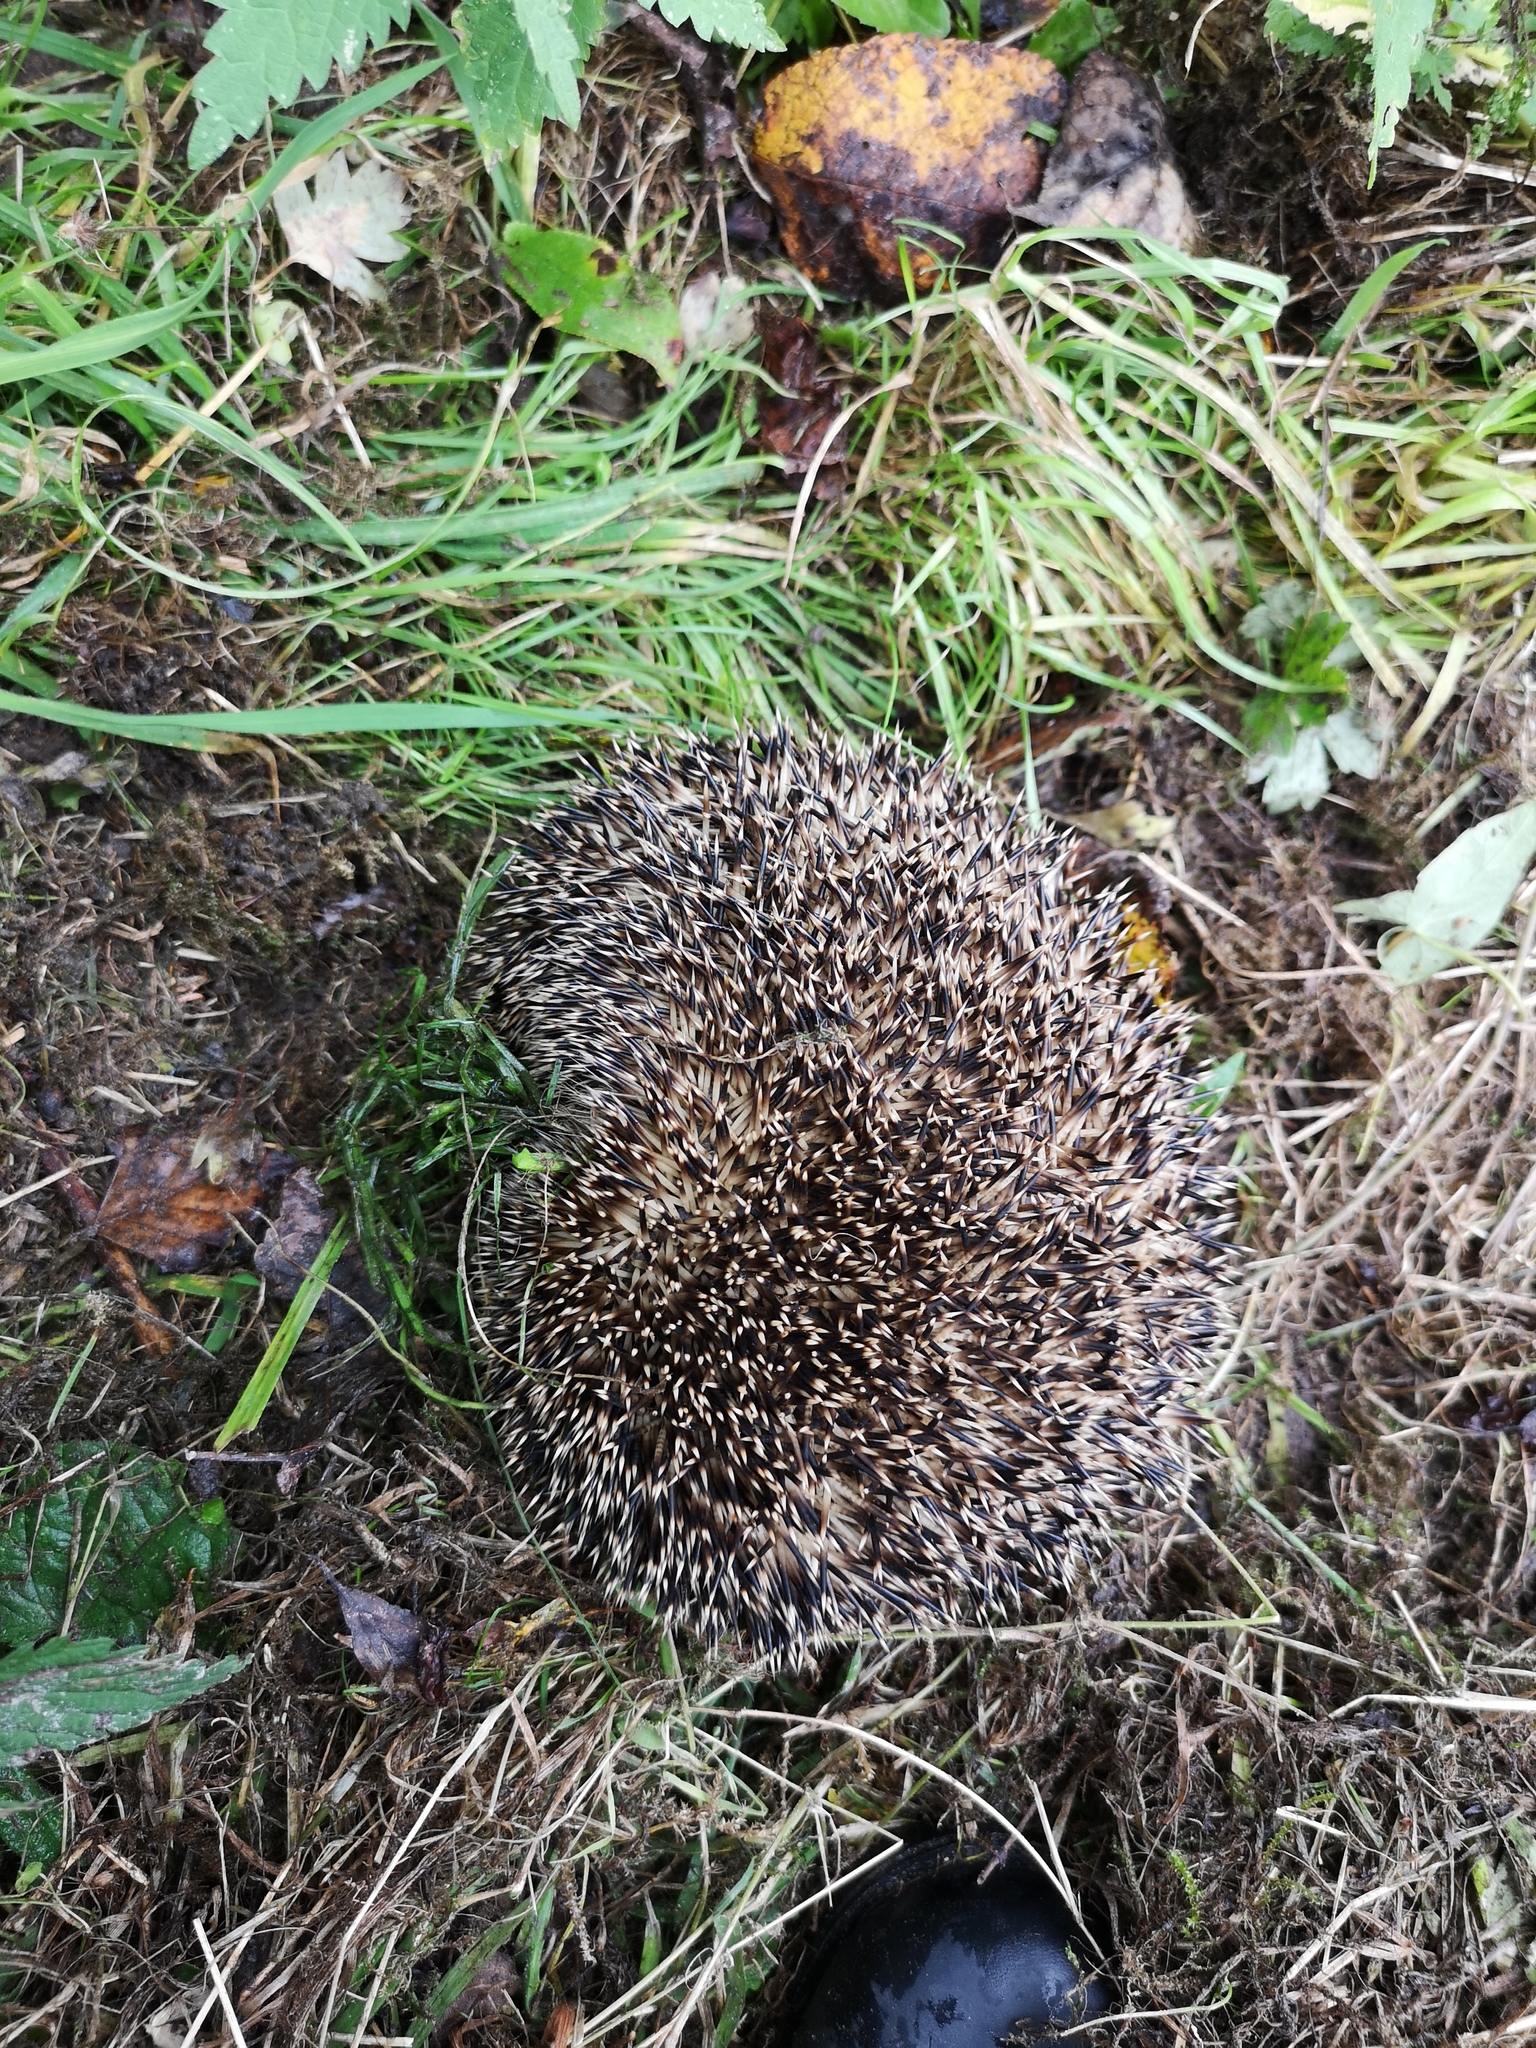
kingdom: Animalia
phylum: Chordata
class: Mammalia
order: Erinaceomorpha
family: Erinaceidae
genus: Erinaceus
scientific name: Erinaceus europaeus
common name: West european hedgehog
